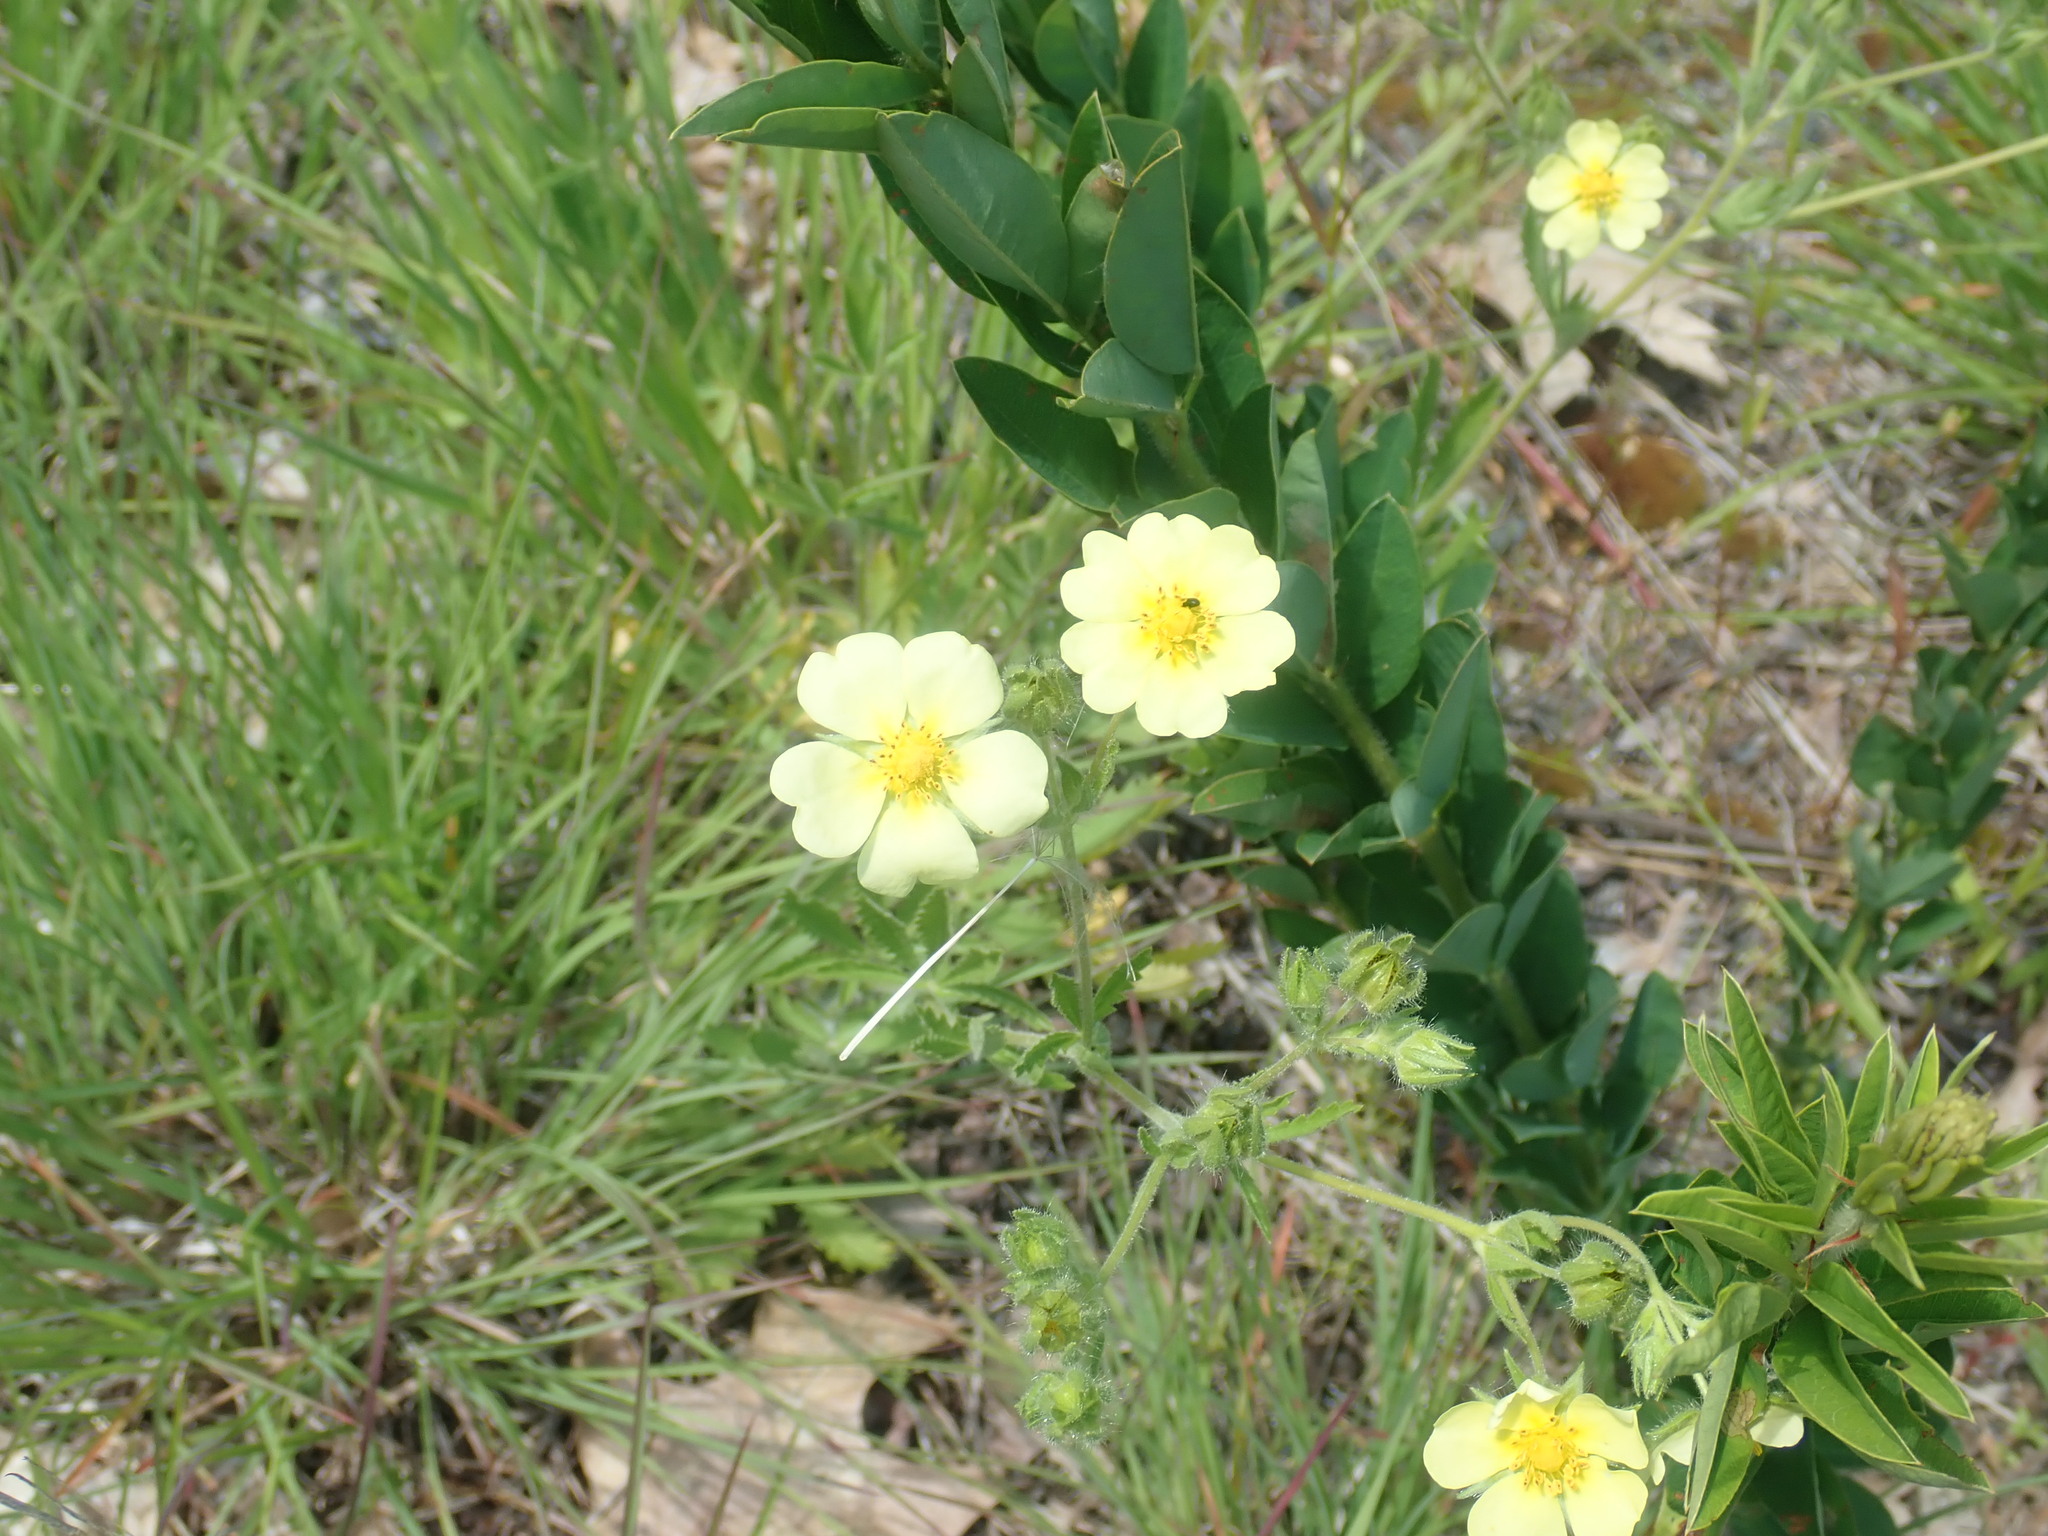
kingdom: Plantae
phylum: Tracheophyta
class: Magnoliopsida
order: Rosales
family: Rosaceae
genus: Potentilla
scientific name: Potentilla recta
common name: Sulphur cinquefoil
